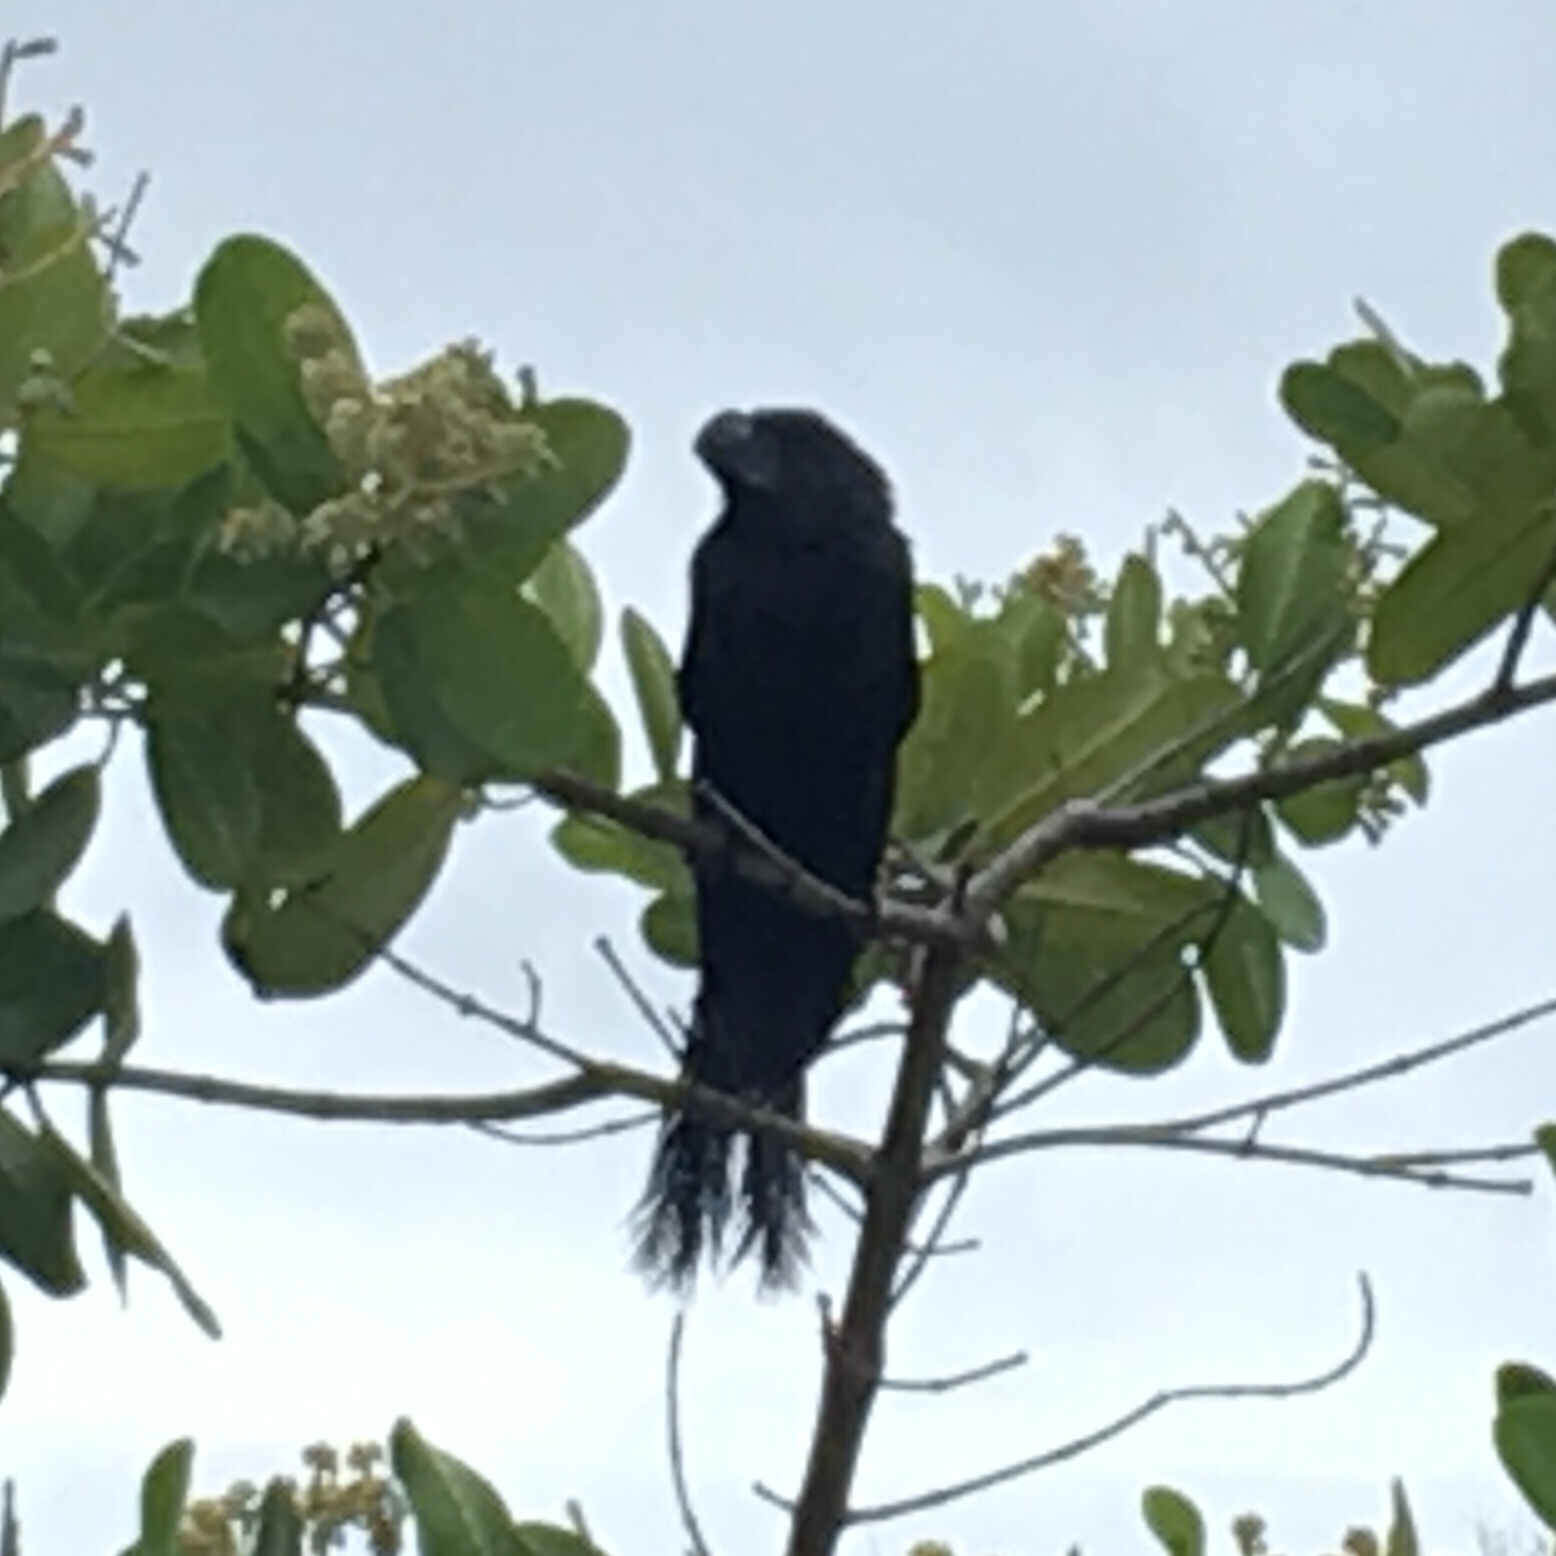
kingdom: Animalia
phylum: Chordata
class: Aves
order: Cuculiformes
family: Cuculidae
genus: Crotophaga
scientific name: Crotophaga ani
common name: Smooth-billed ani
